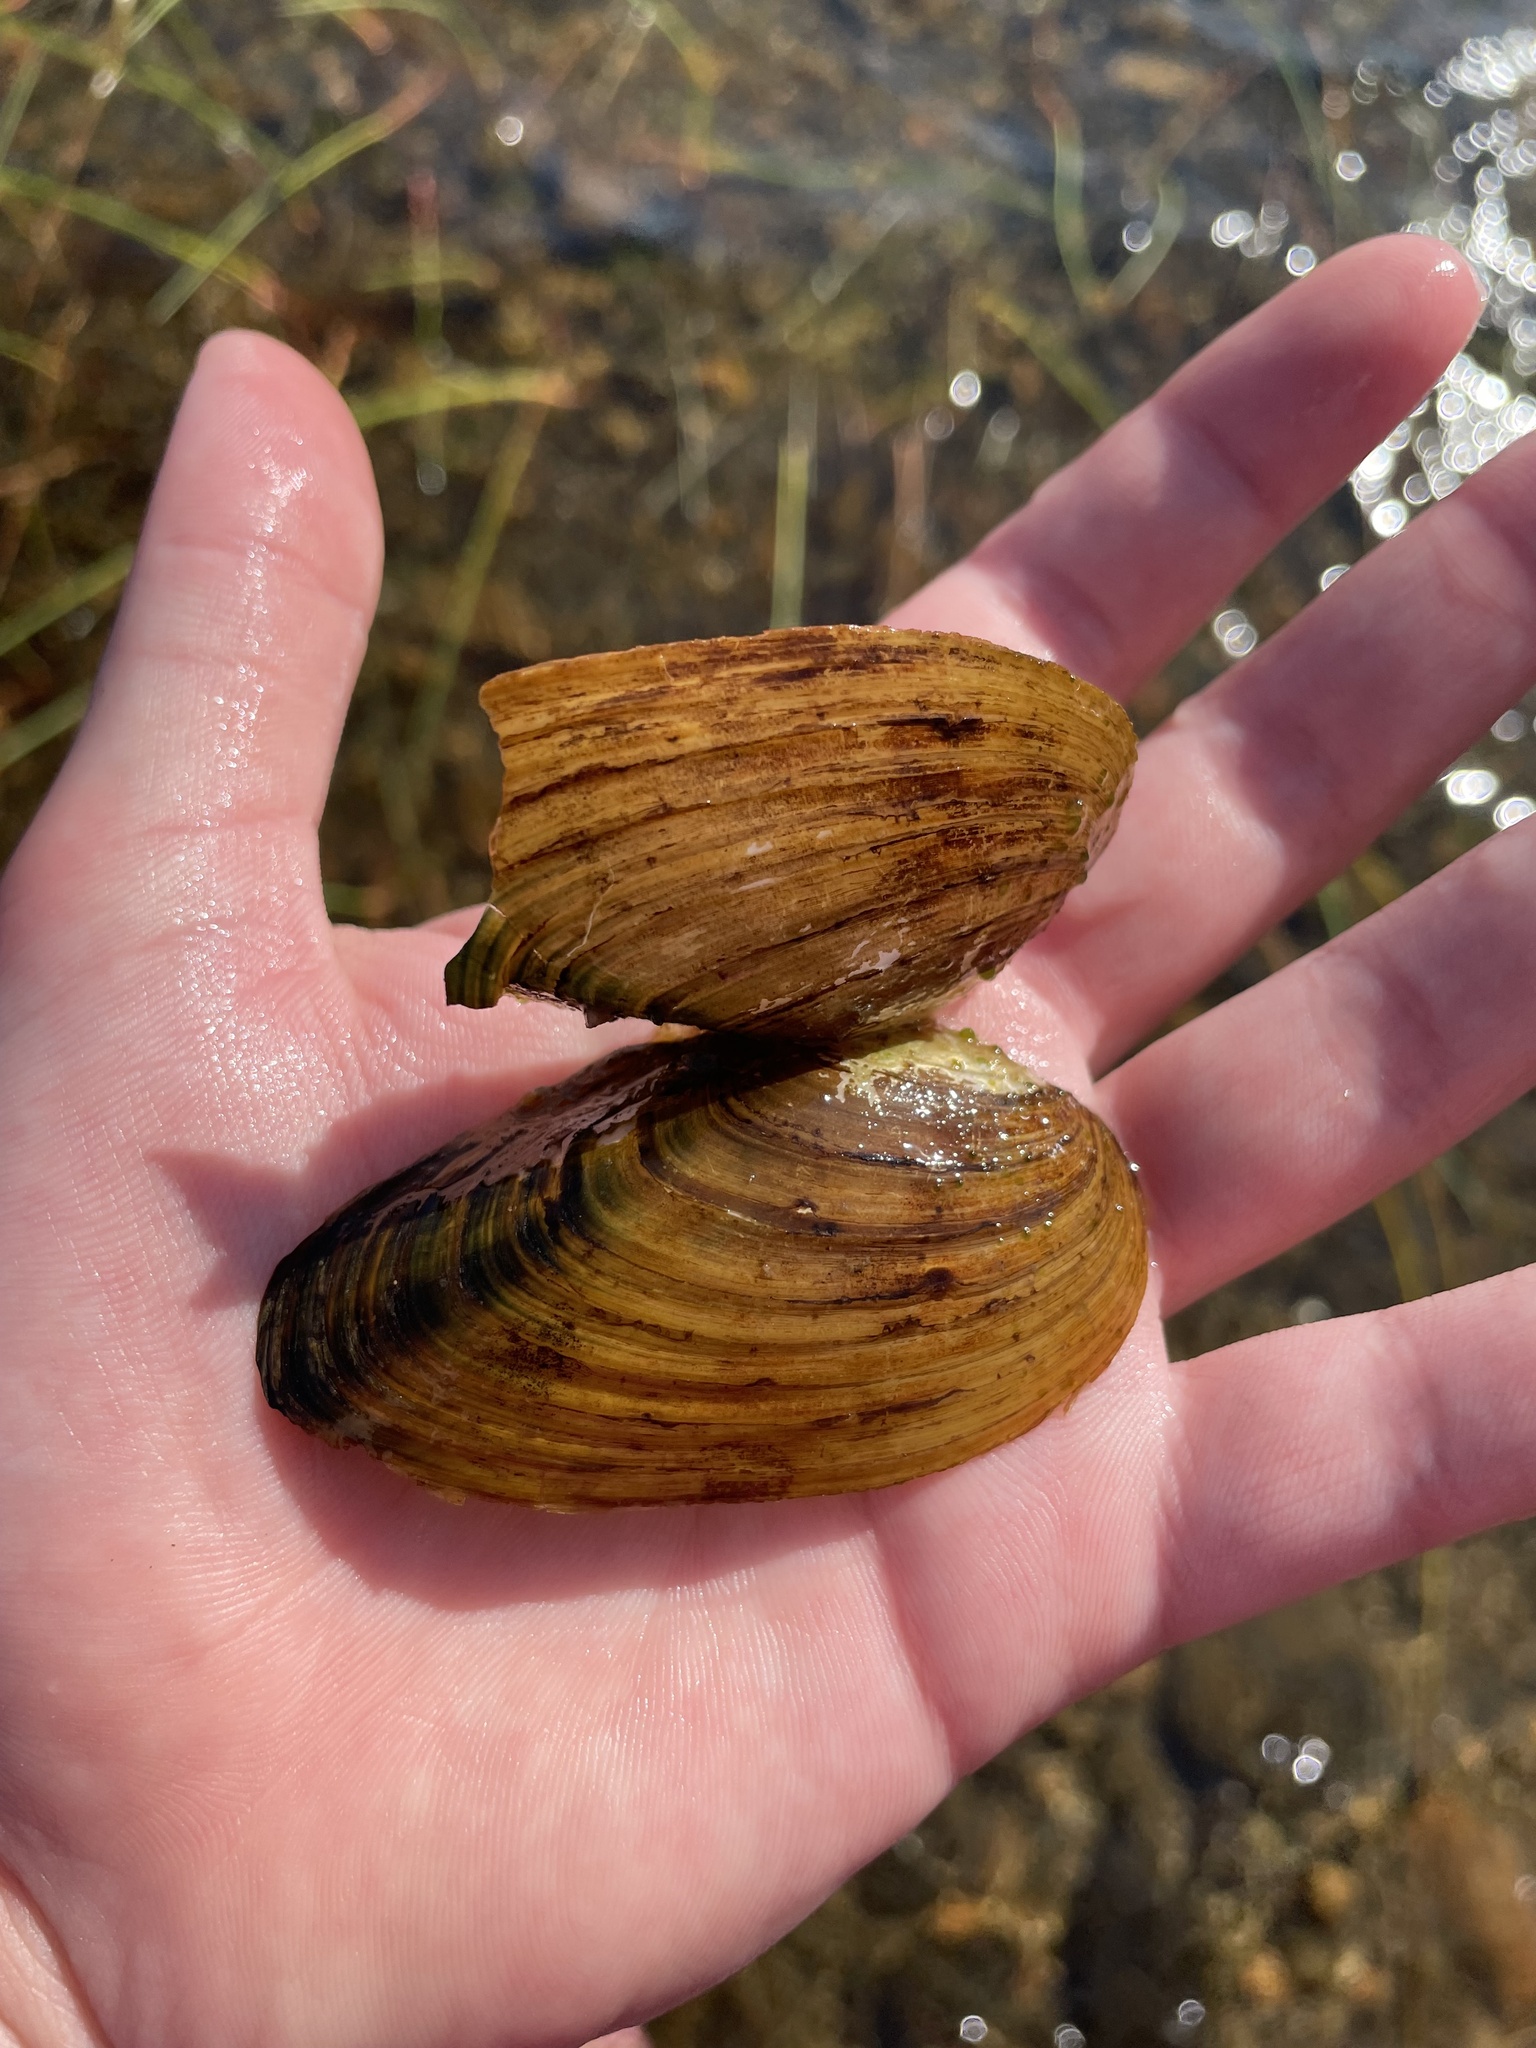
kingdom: Animalia
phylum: Mollusca
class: Bivalvia
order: Unionida
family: Unionidae
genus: Pyganodon
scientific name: Pyganodon cataracta
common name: Eastern floater
